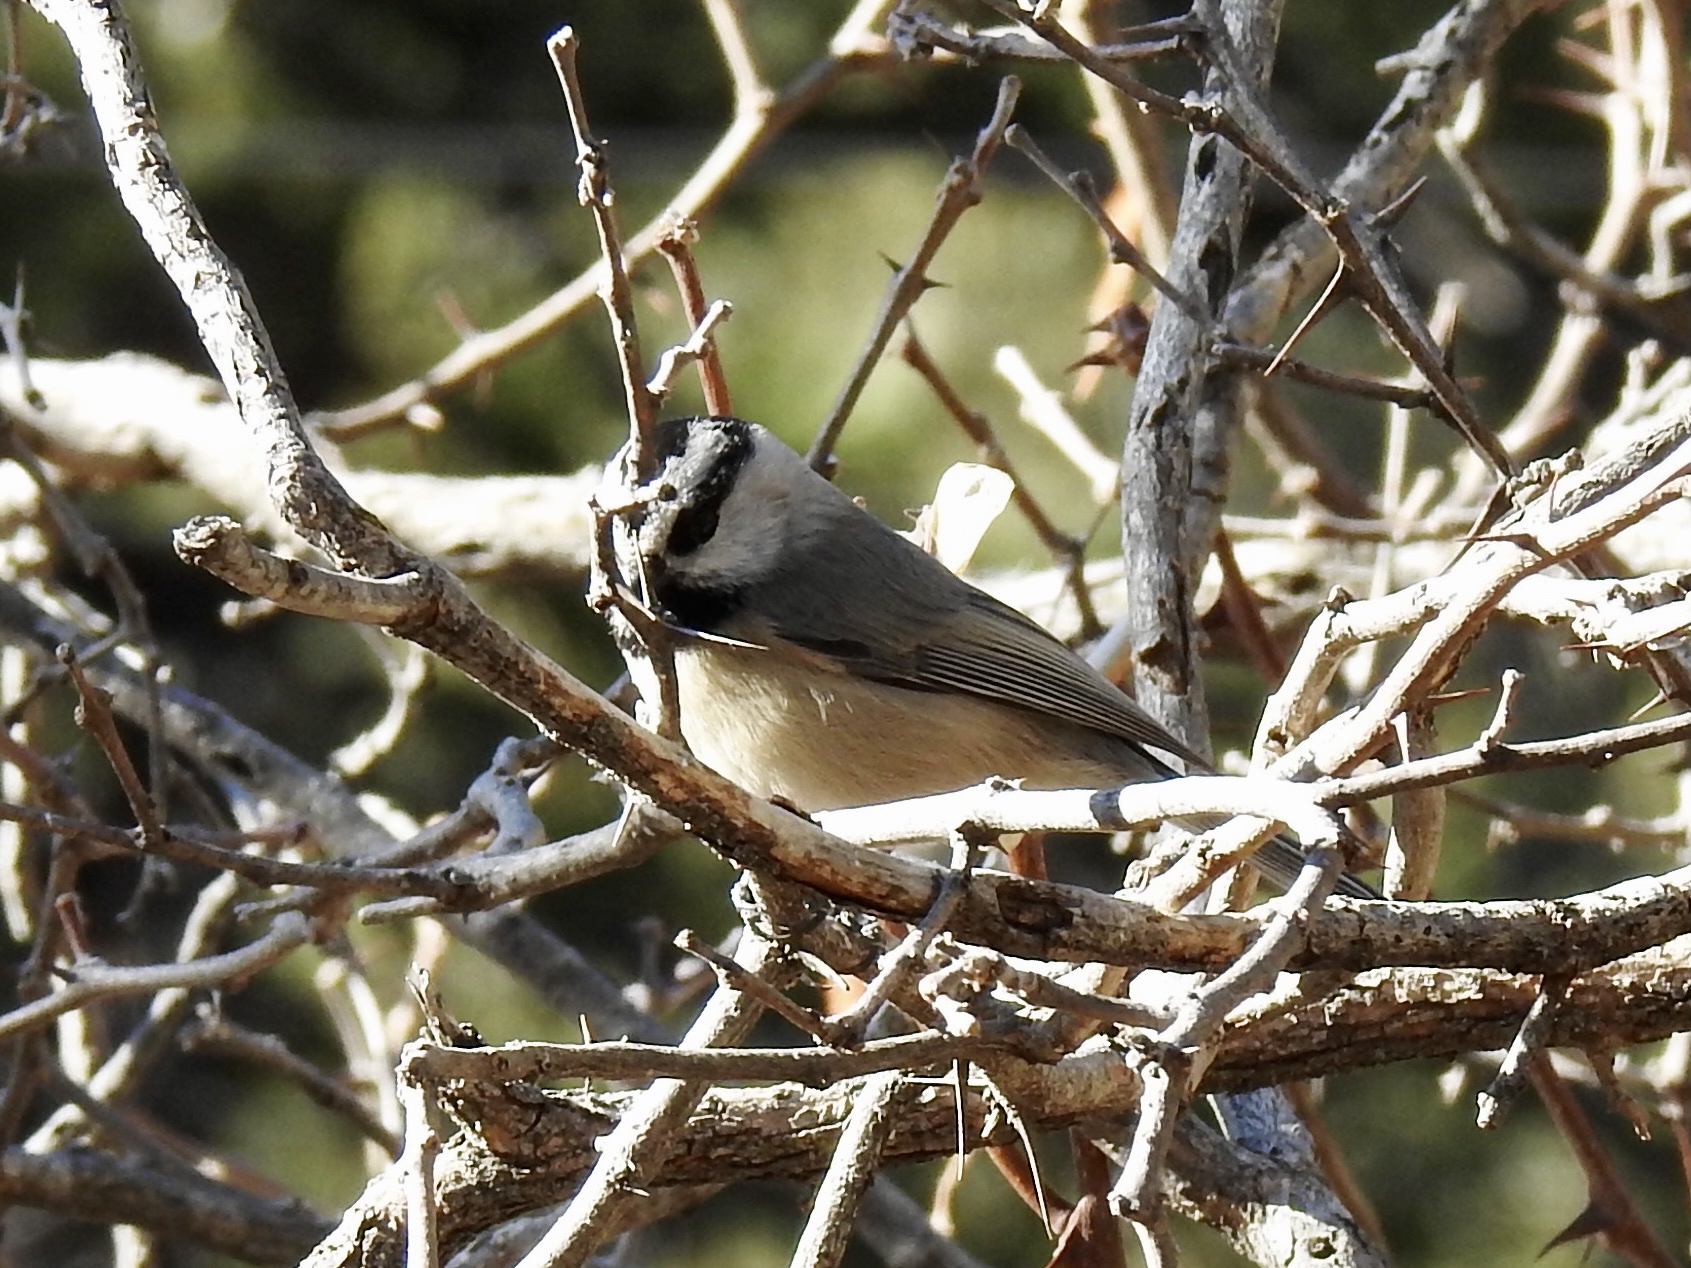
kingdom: Animalia
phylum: Chordata
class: Aves
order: Passeriformes
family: Paridae
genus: Poecile
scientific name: Poecile gambeli
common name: Mountain chickadee
